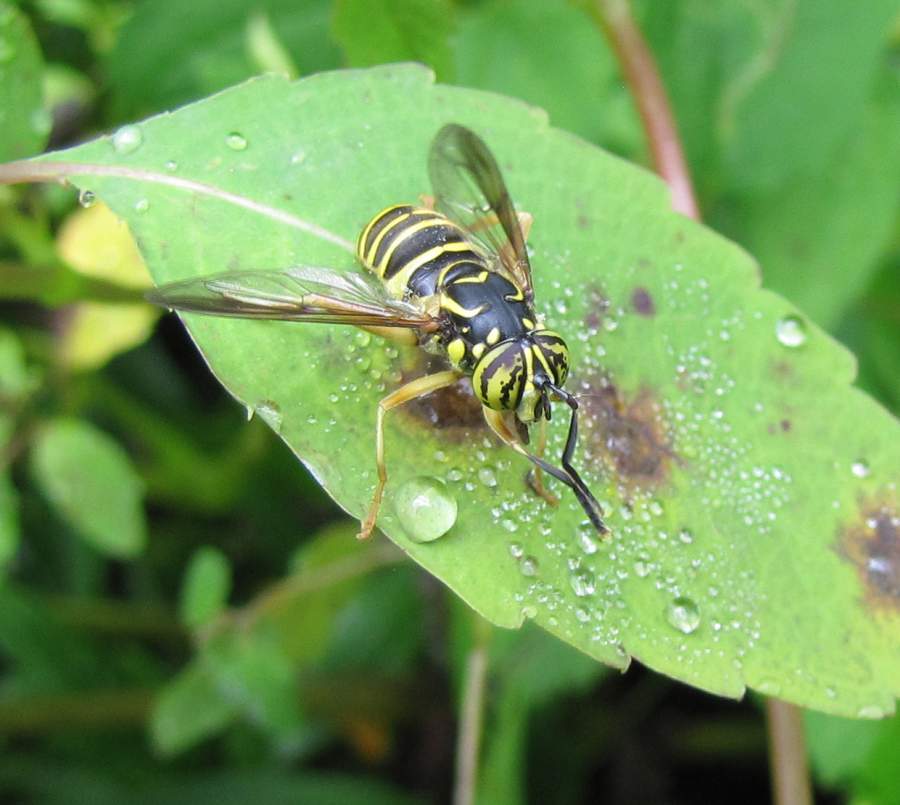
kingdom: Animalia
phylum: Arthropoda
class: Insecta
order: Diptera
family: Syrphidae
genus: Spilomyia
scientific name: Spilomyia longicornis
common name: Eastern hornet fly
